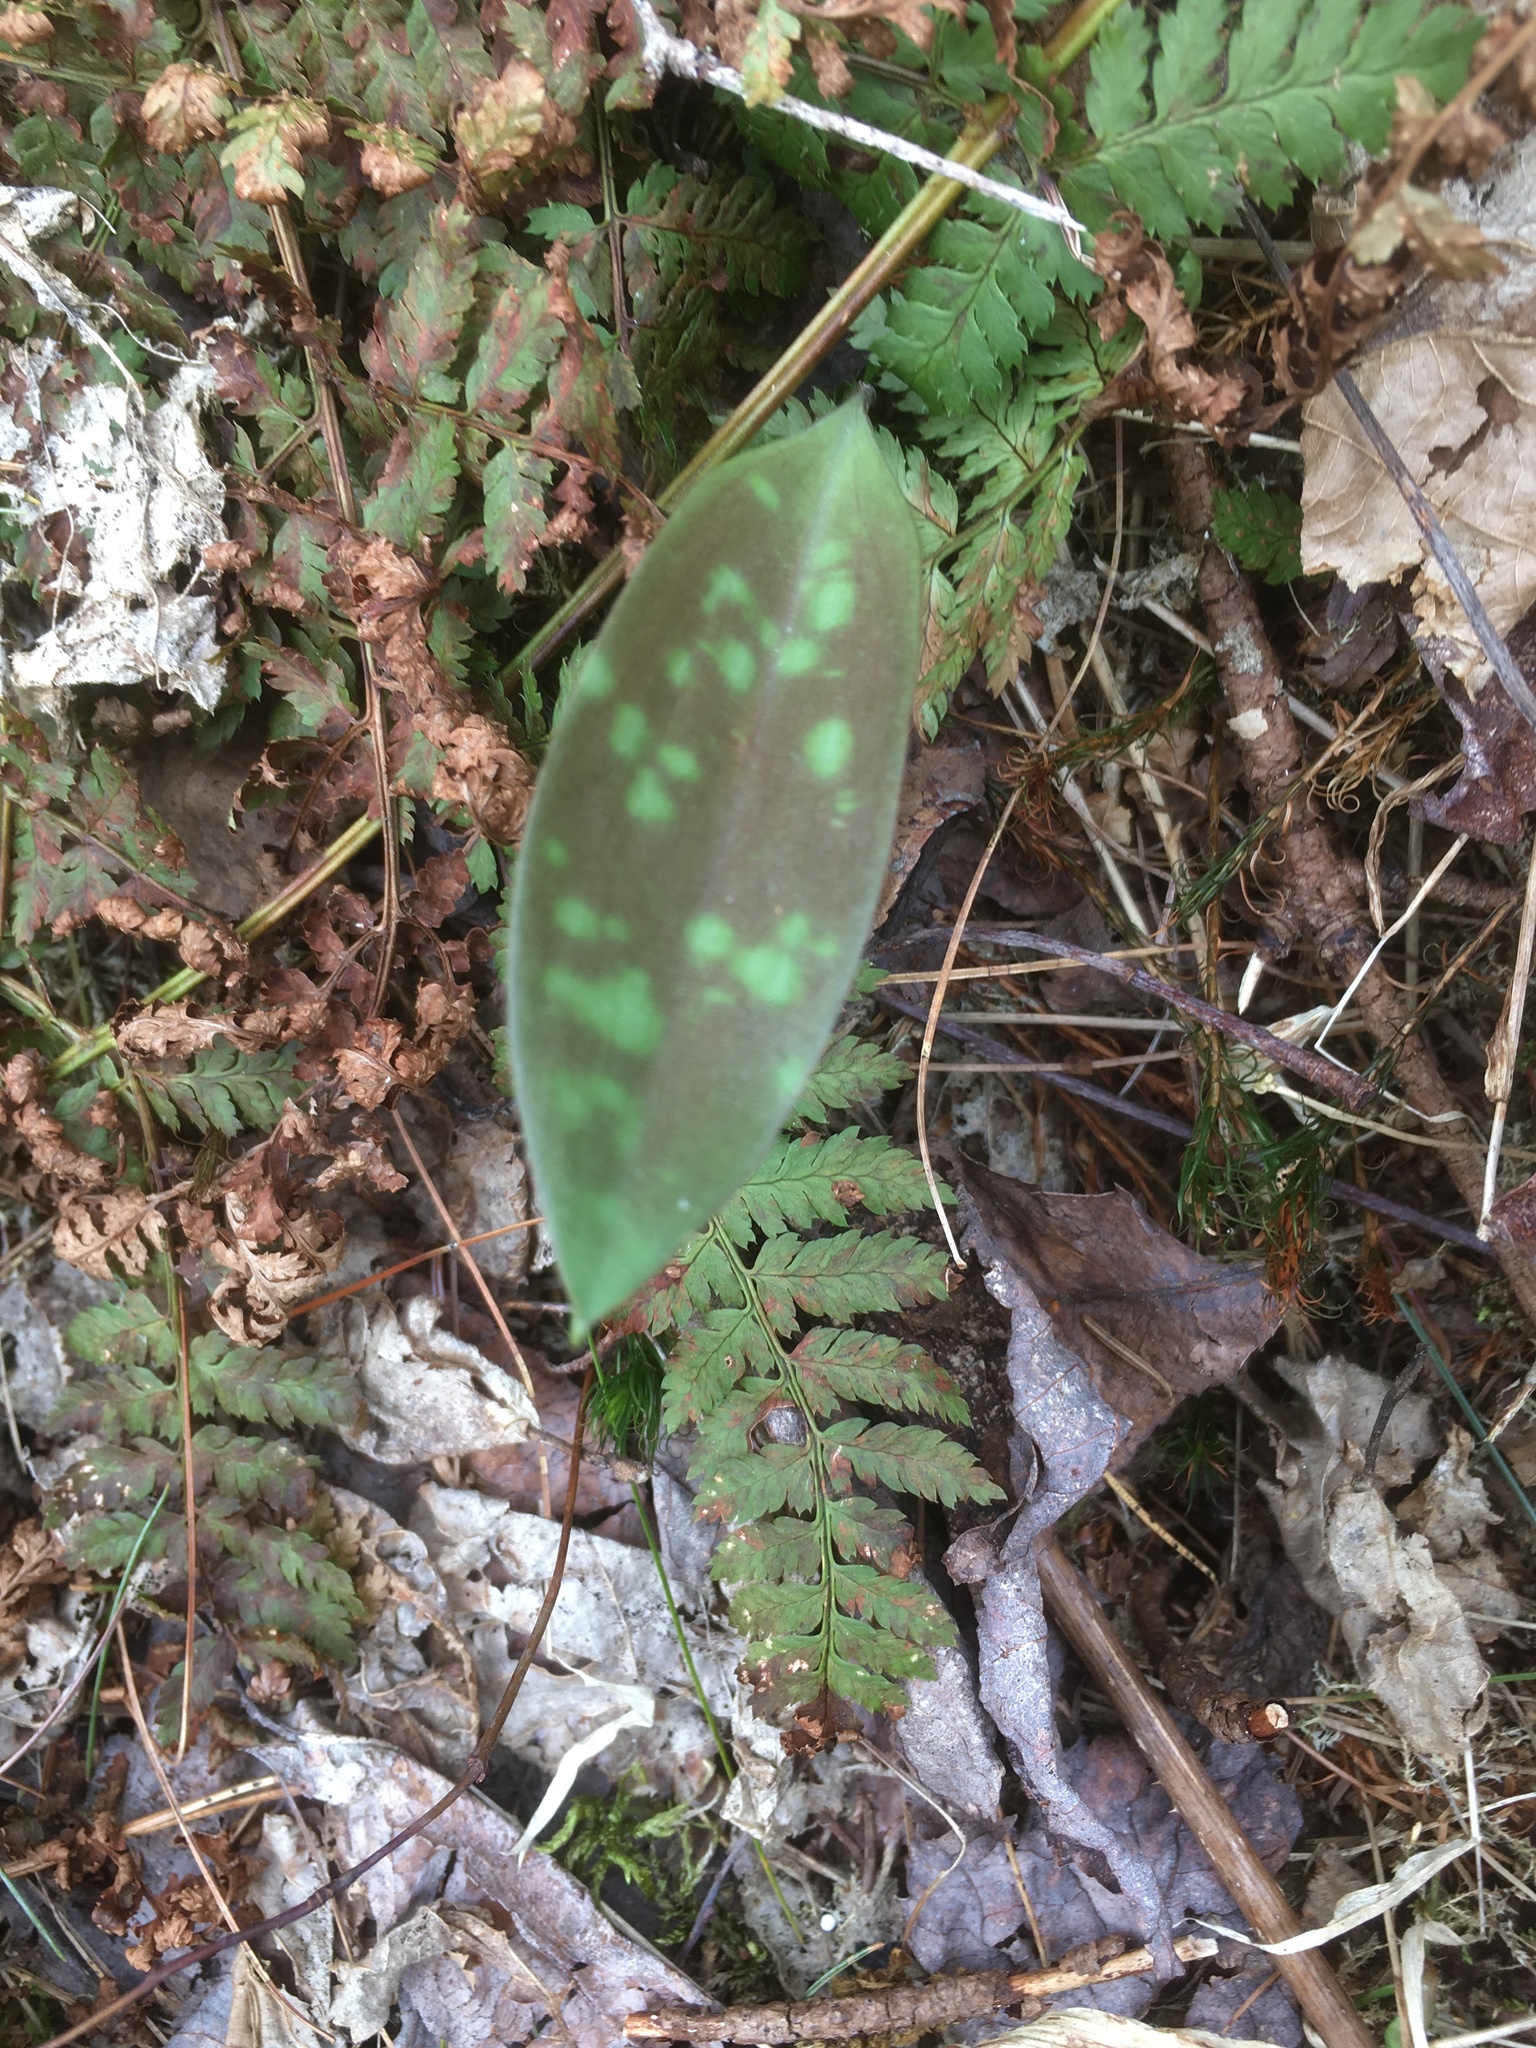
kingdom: Plantae
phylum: Tracheophyta
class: Liliopsida
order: Liliales
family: Liliaceae
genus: Erythronium
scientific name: Erythronium americanum
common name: Yellow adder's-tongue
